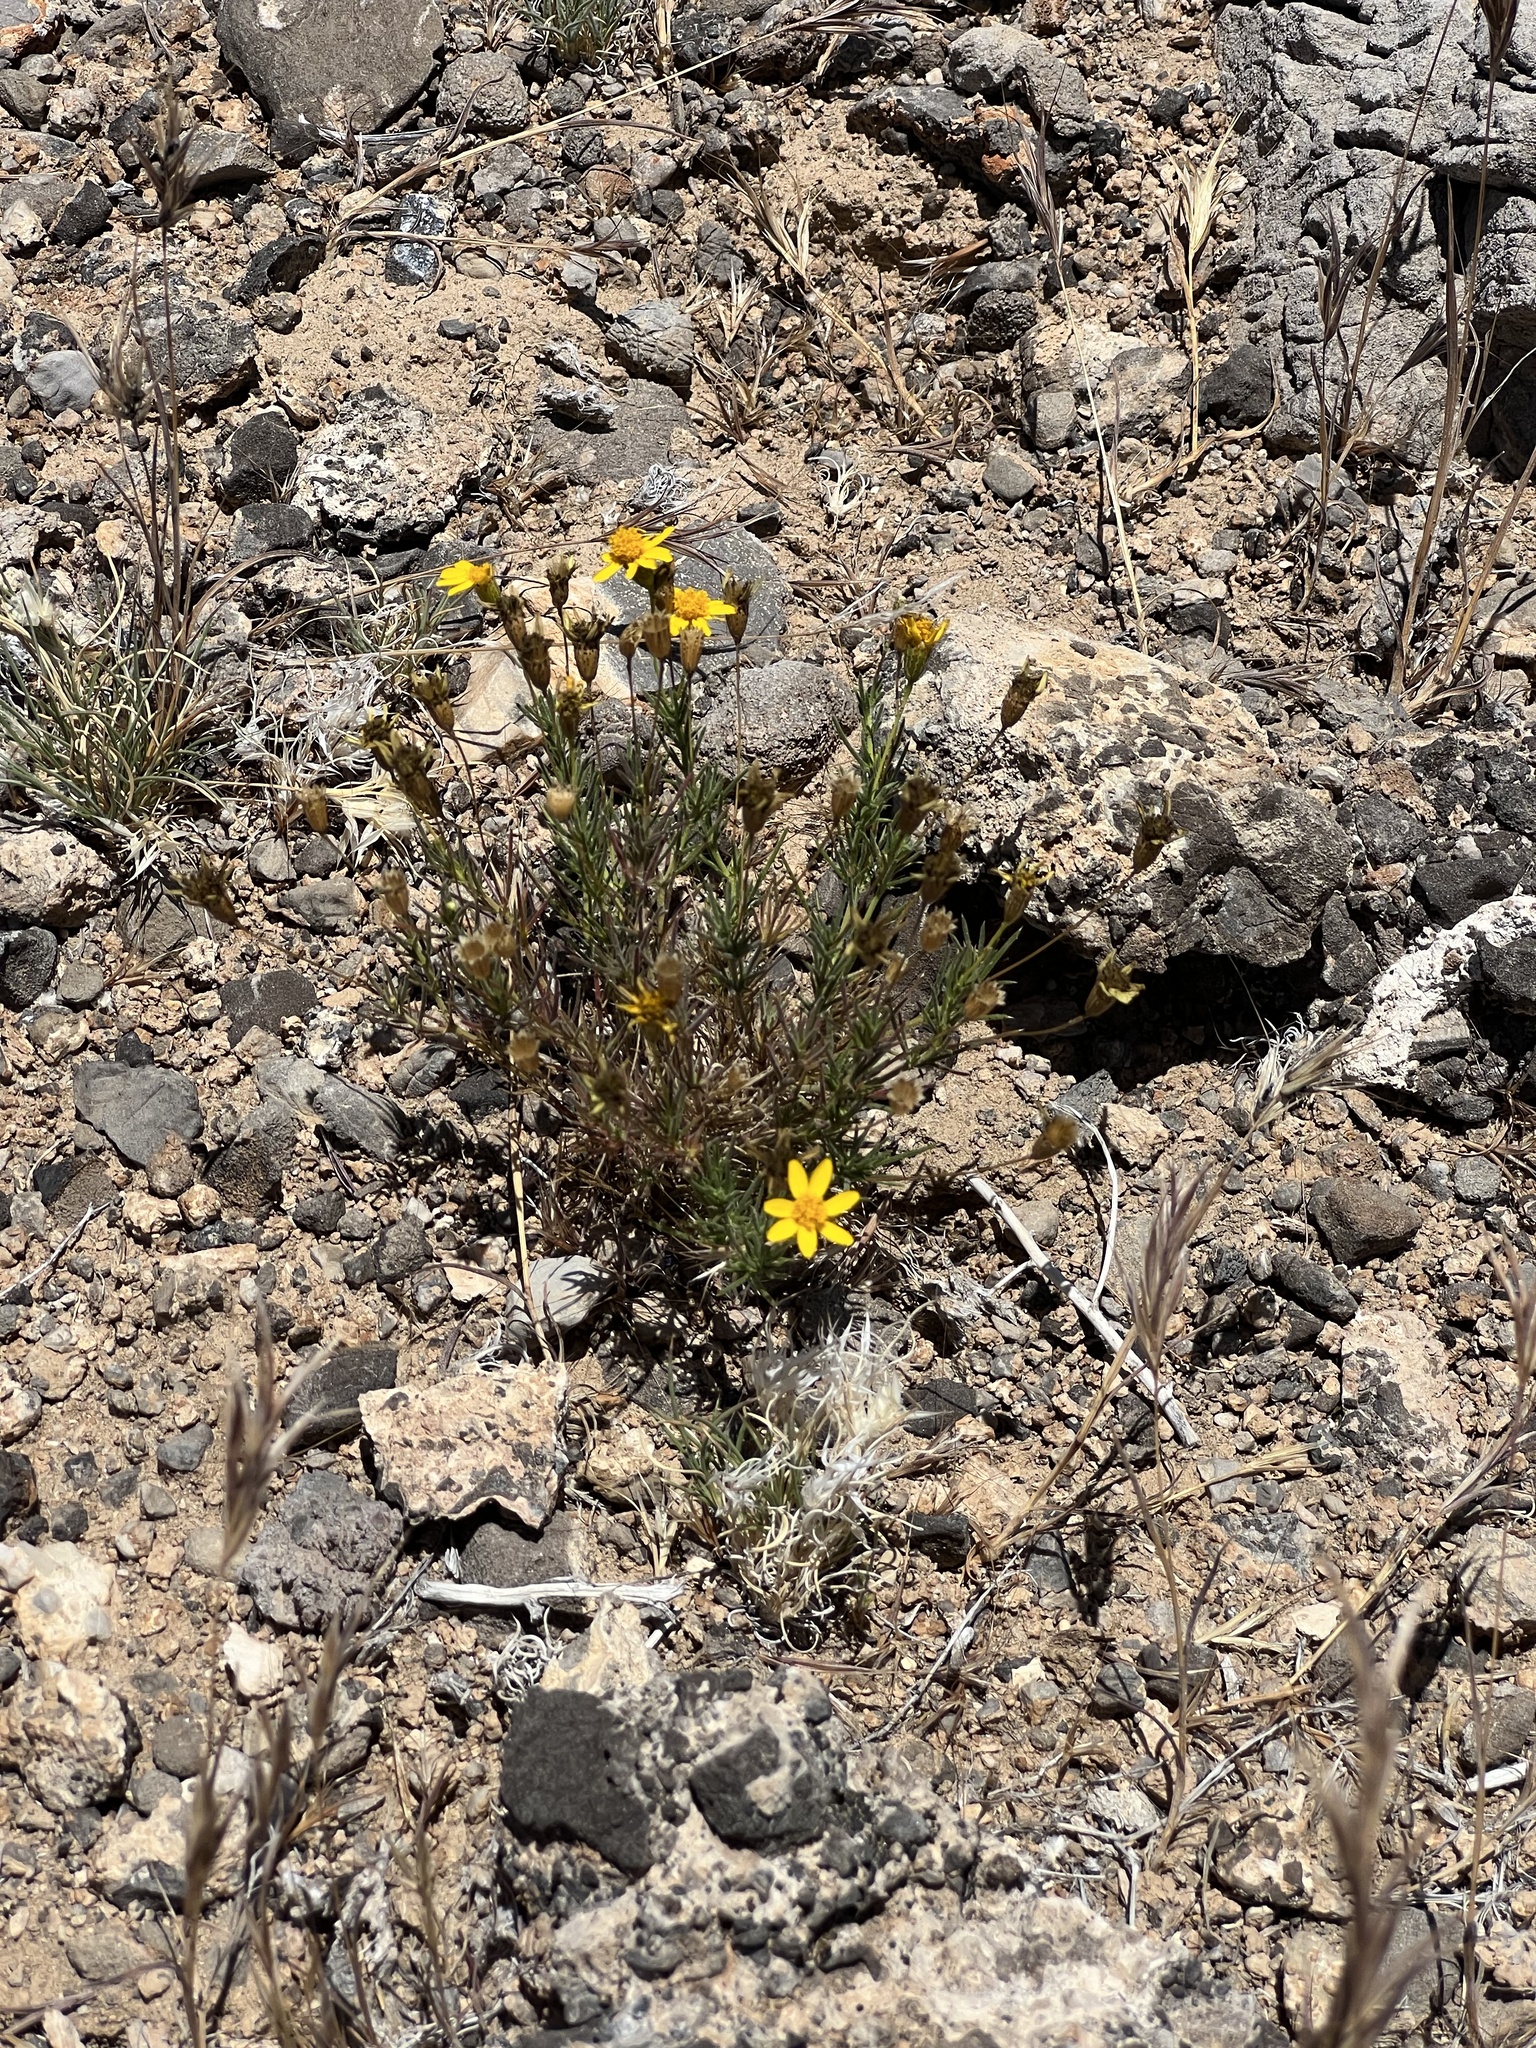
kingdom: Plantae
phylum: Tracheophyta
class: Magnoliopsida
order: Asterales
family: Asteraceae
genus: Thymophylla
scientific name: Thymophylla pentachaeta
